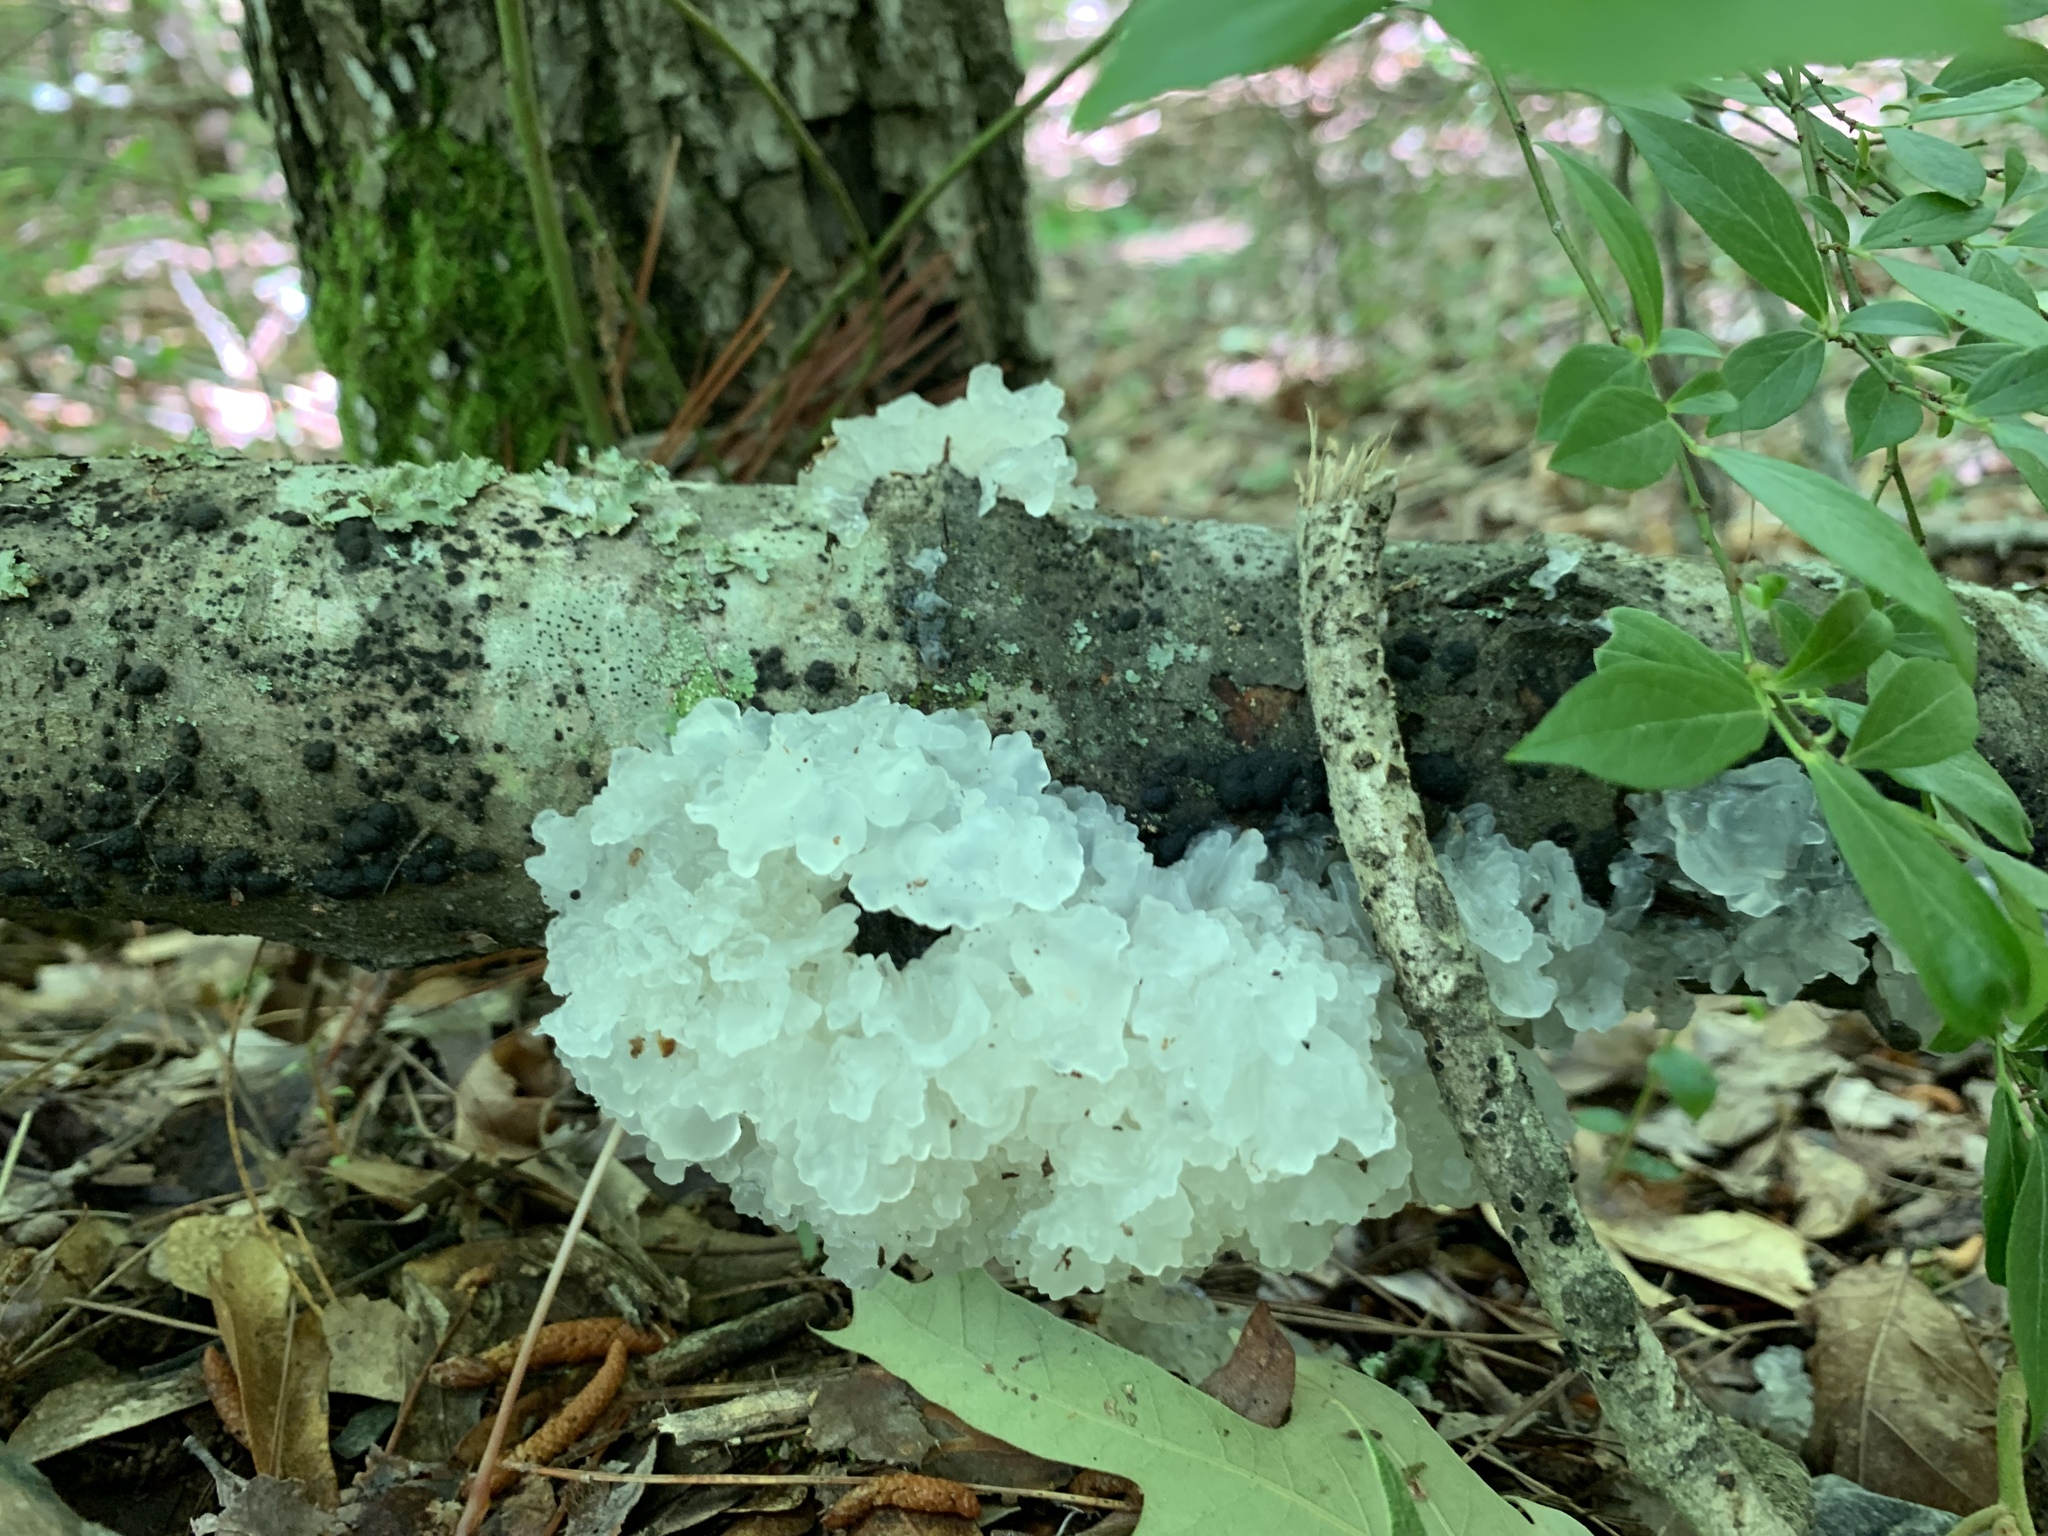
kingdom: Fungi
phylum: Basidiomycota
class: Tremellomycetes
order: Tremellales
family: Tremellaceae
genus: Tremella
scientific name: Tremella fuciformis
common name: Snow fungus
